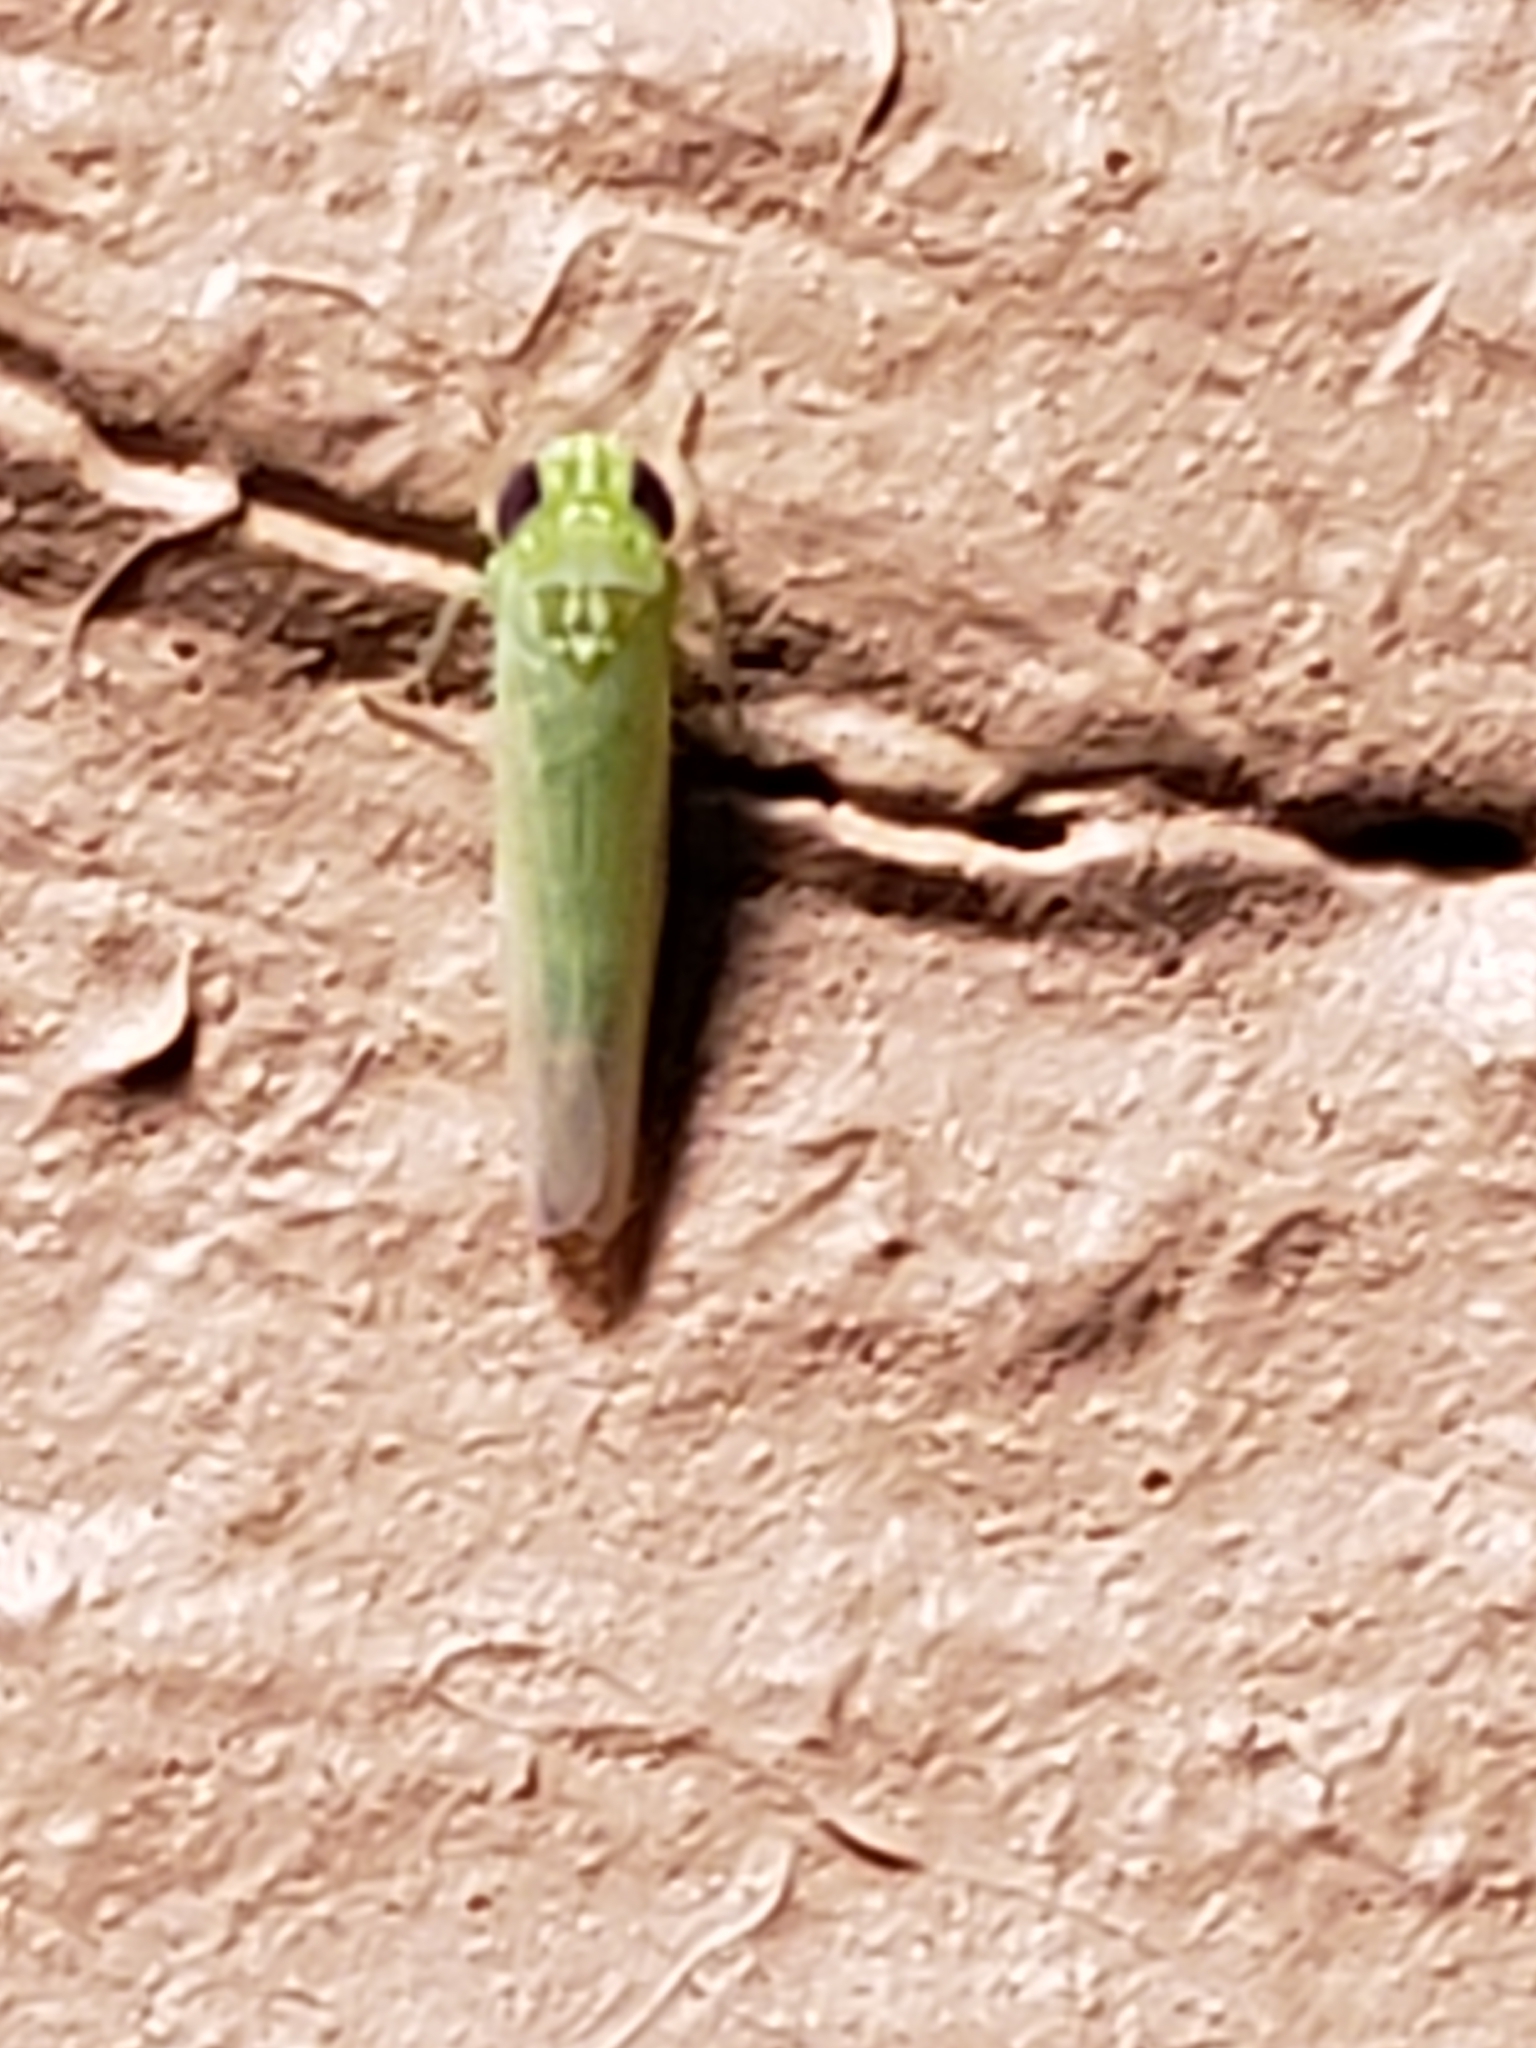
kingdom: Animalia
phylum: Arthropoda
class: Insecta
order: Hemiptera
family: Cicadellidae
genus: Empoasca
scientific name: Empoasca fabae
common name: Potato leafhopper
